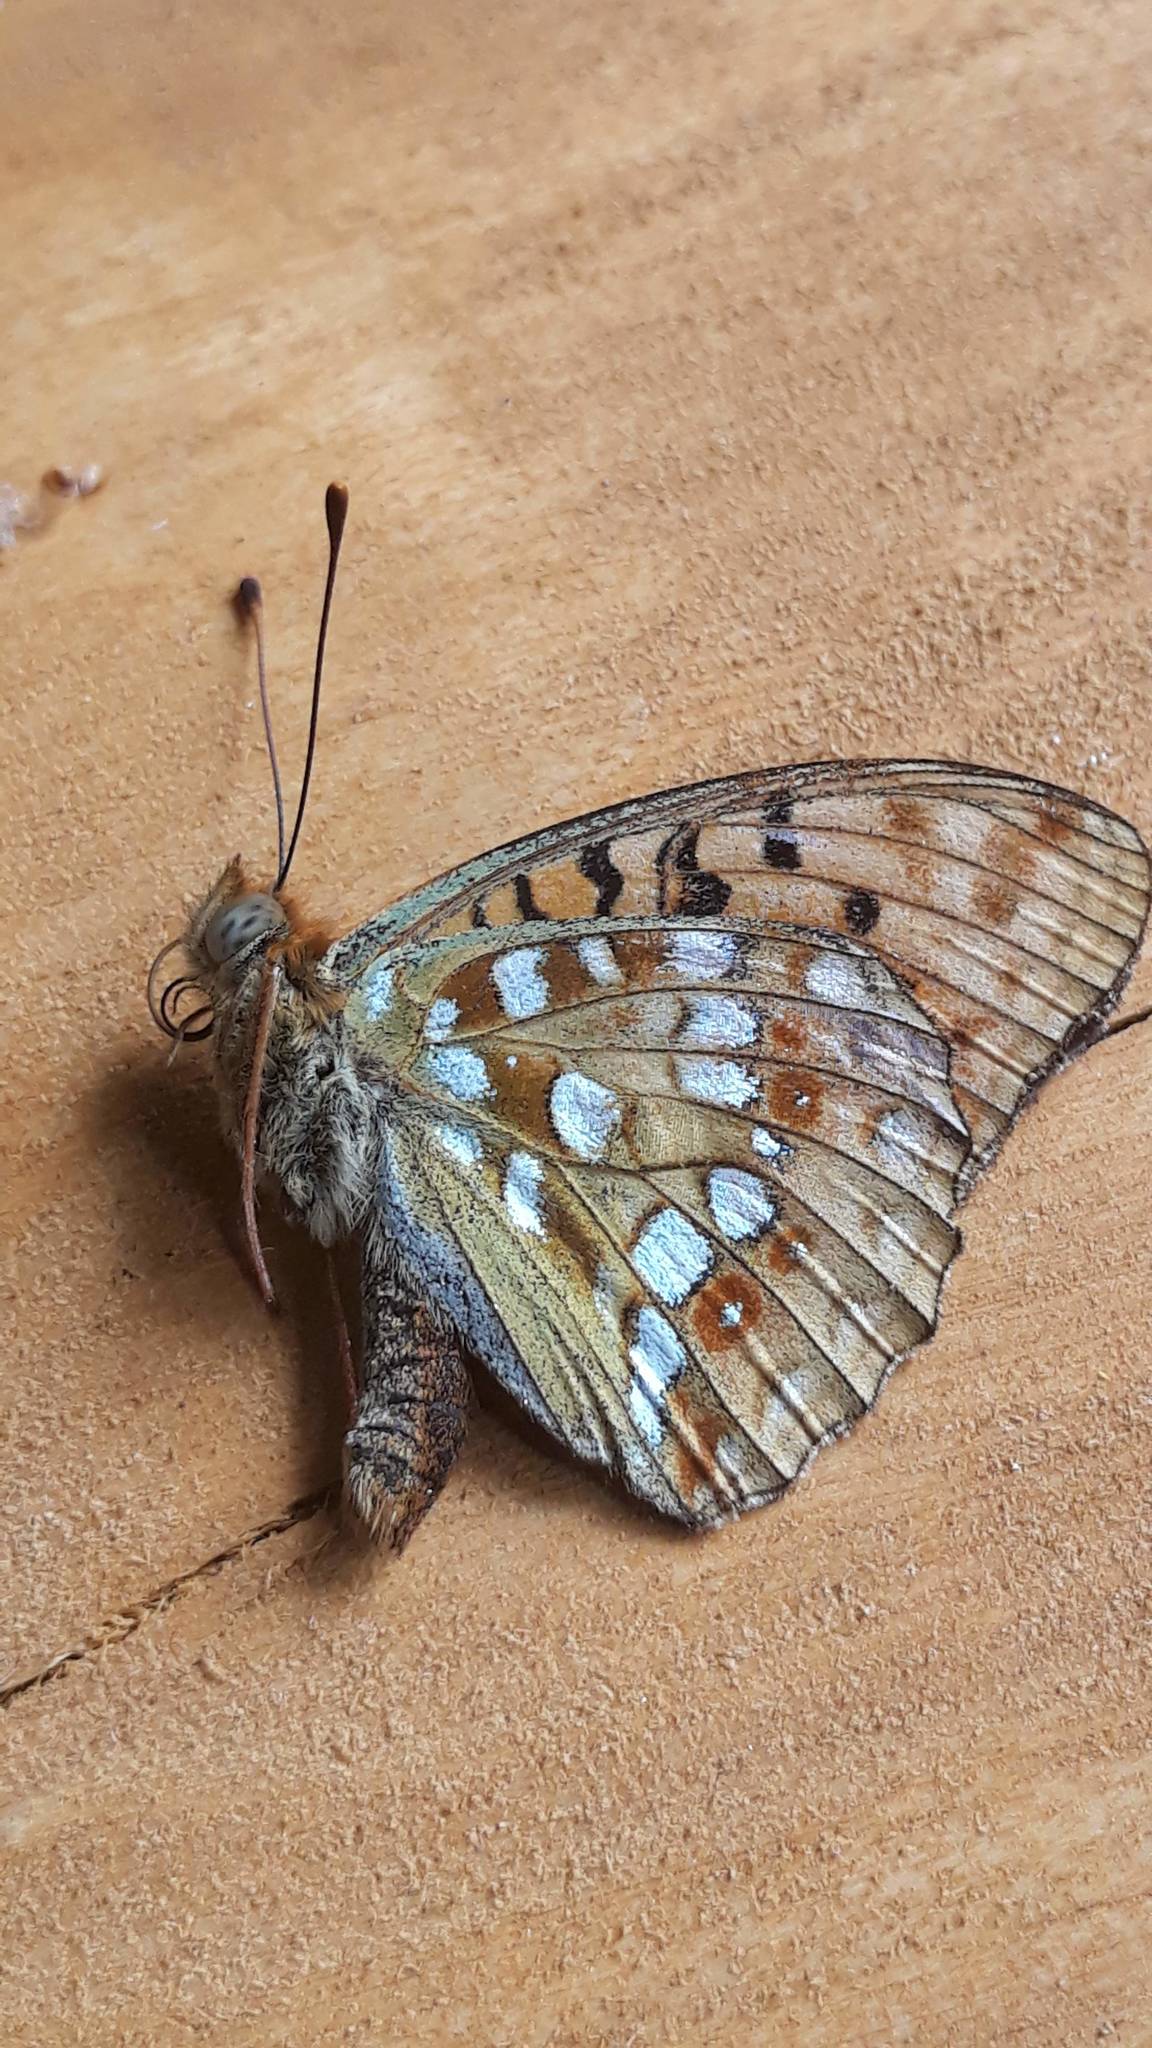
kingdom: Animalia
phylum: Arthropoda
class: Insecta
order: Lepidoptera
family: Nymphalidae
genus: Fabriciana
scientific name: Fabriciana adippe
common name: High brown fritillary
